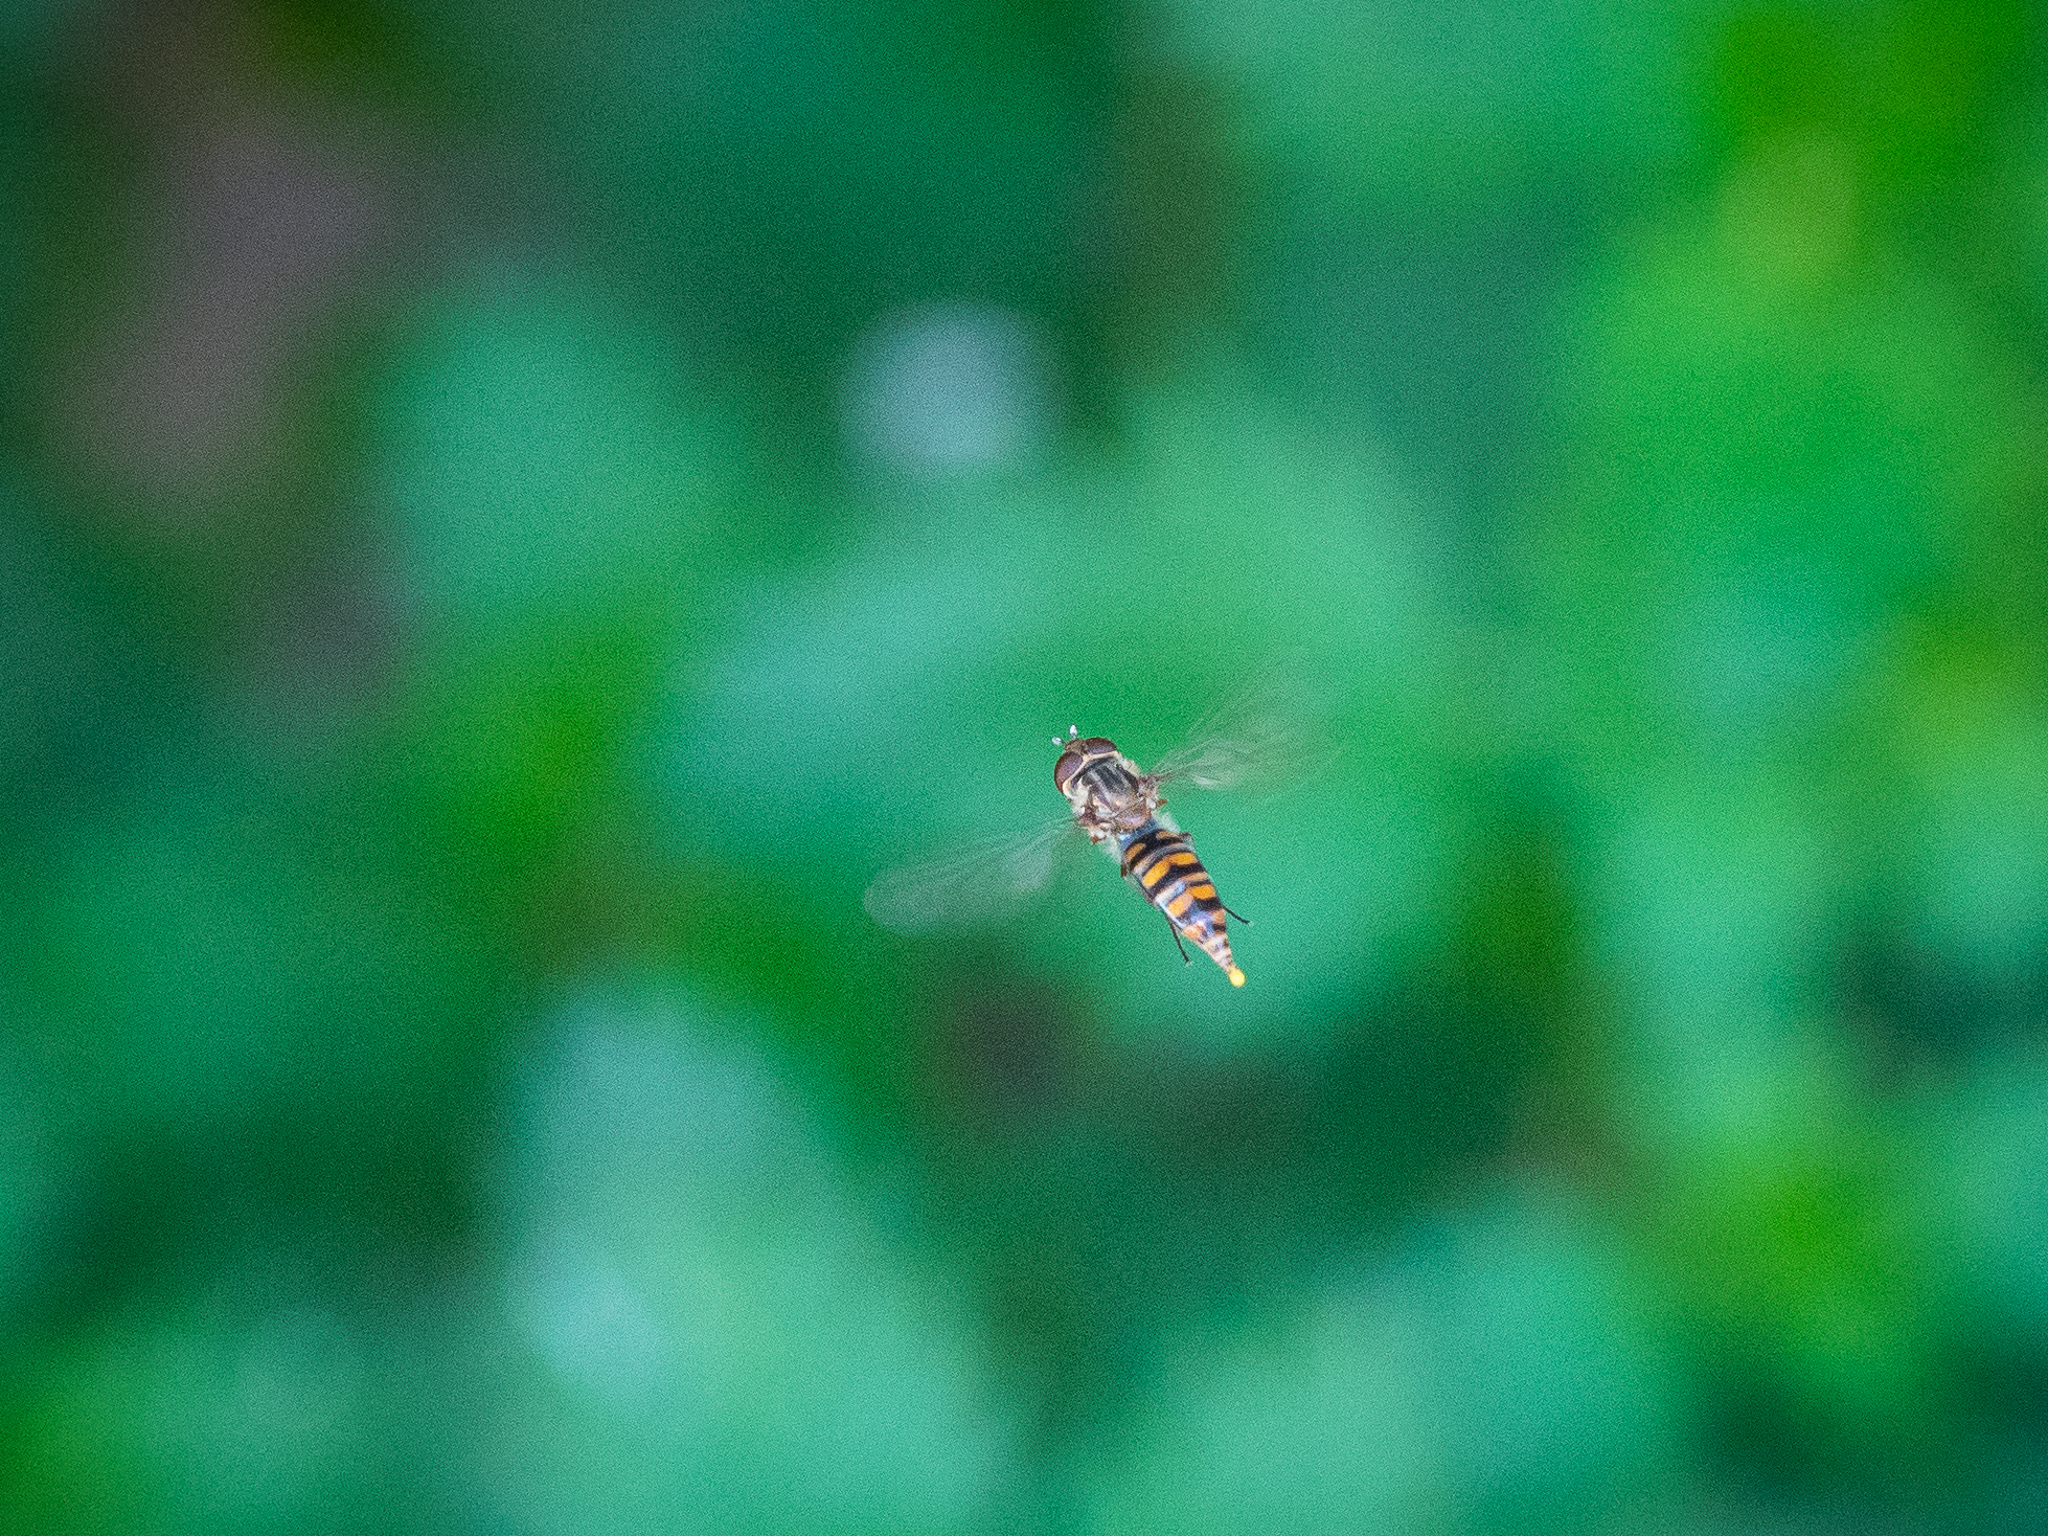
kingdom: Animalia
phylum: Arthropoda
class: Insecta
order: Diptera
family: Syrphidae
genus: Episyrphus
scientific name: Episyrphus balteatus
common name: Marmalade hoverfly
